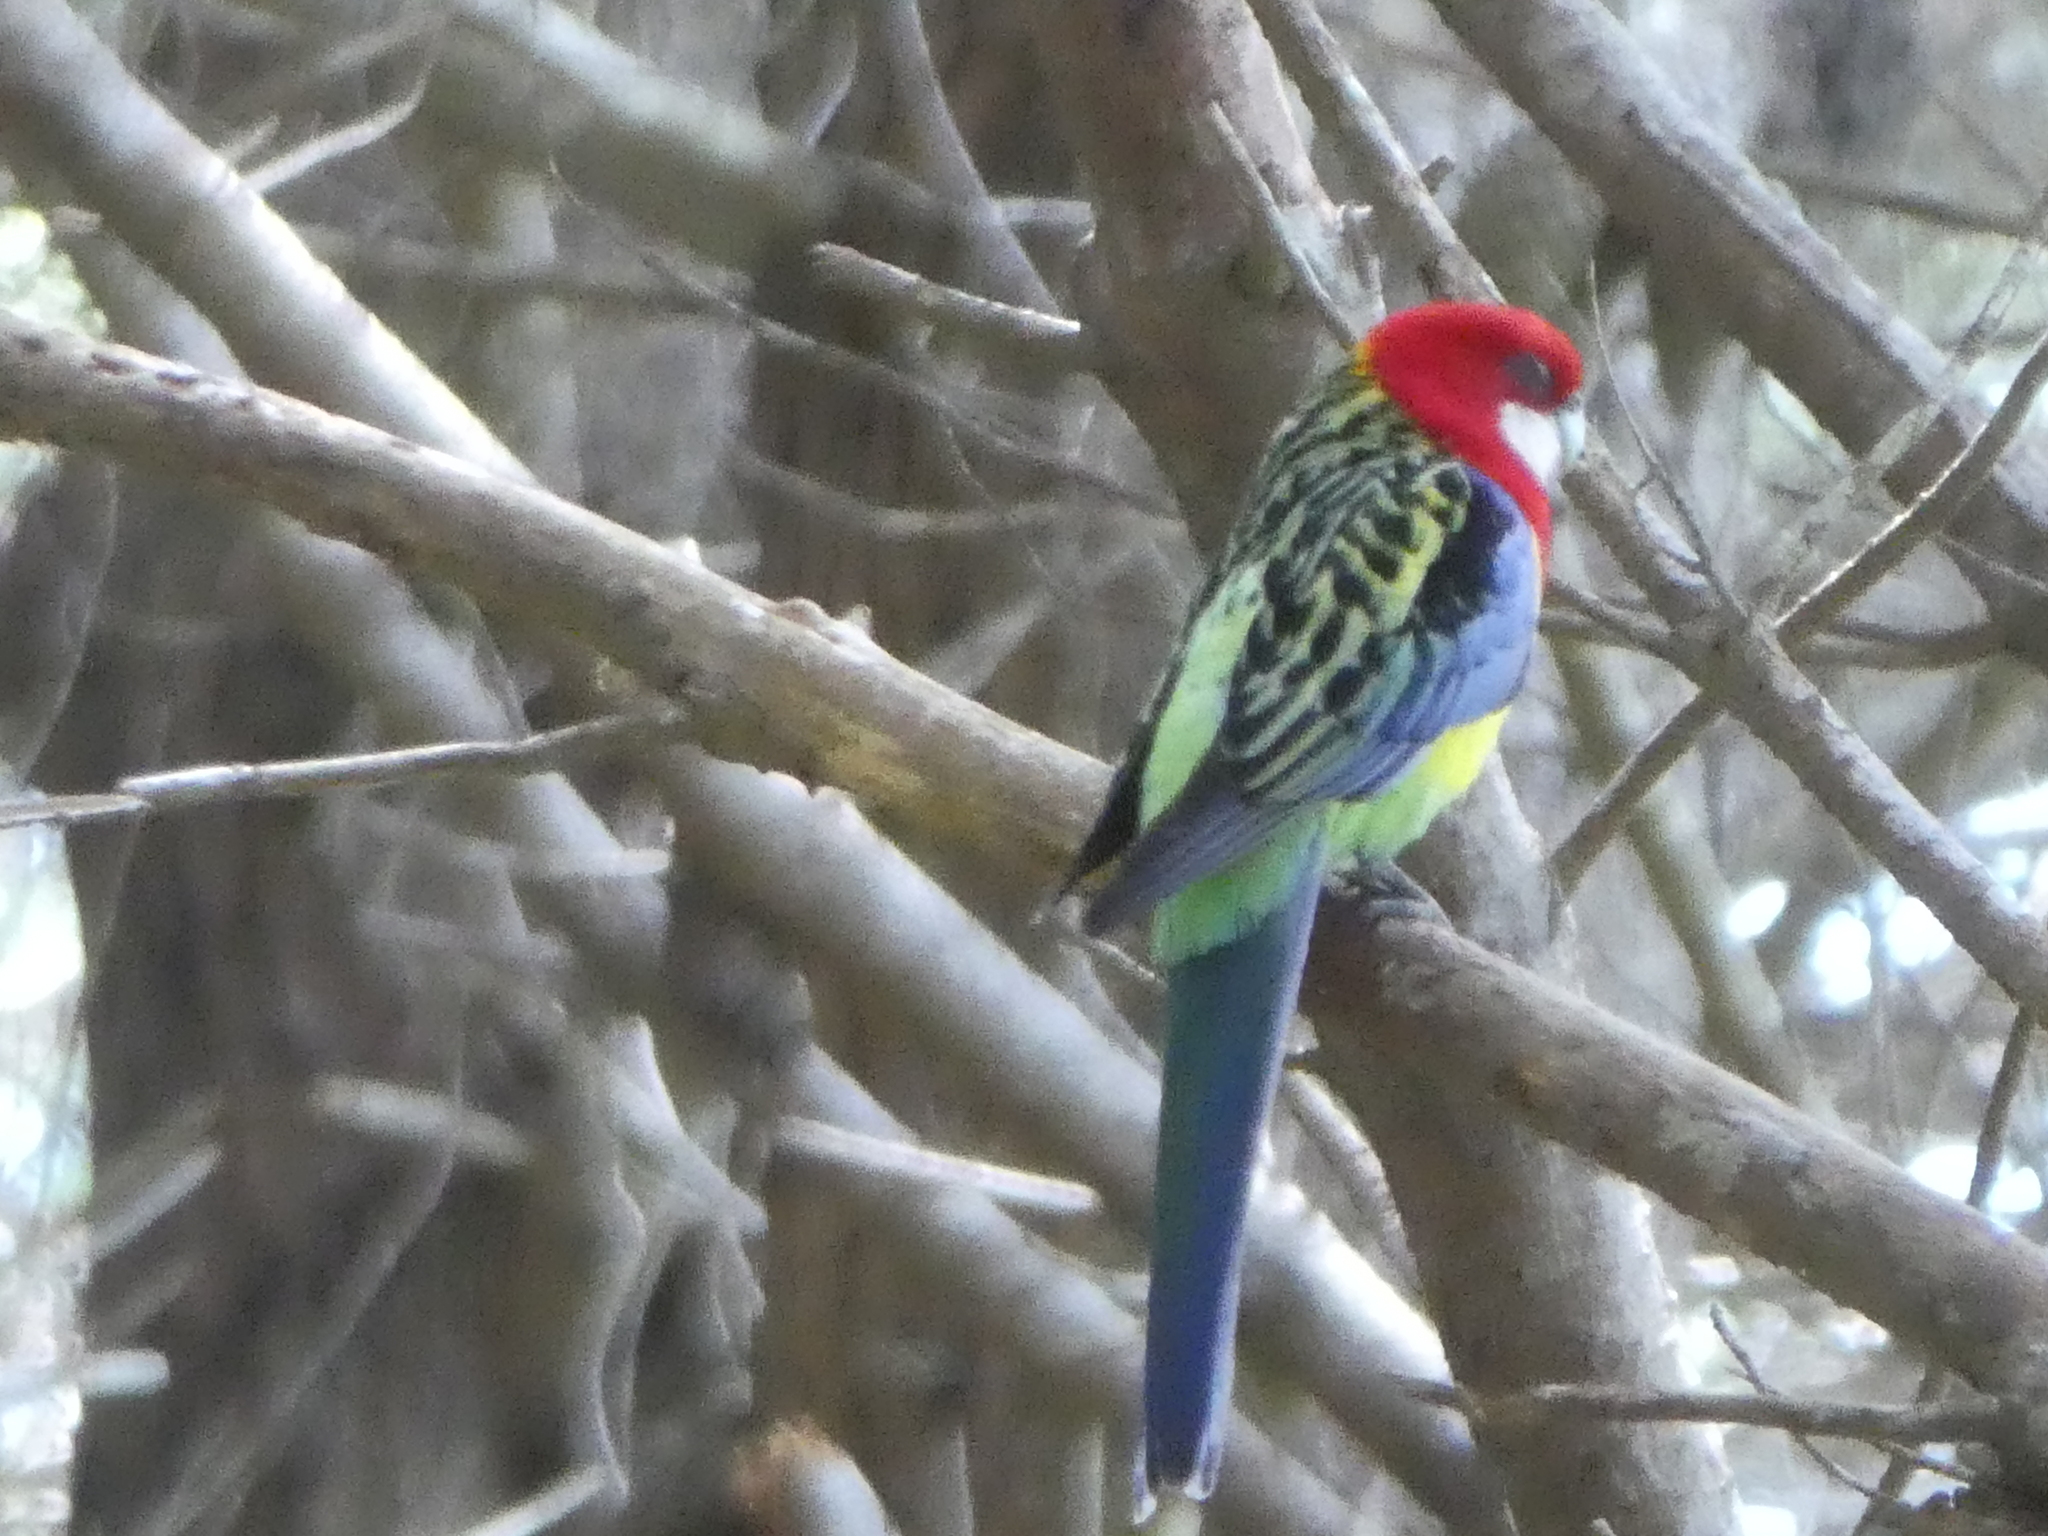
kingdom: Animalia
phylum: Chordata
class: Aves
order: Psittaciformes
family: Psittacidae
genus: Platycercus
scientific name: Platycercus eximius
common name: Eastern rosella
